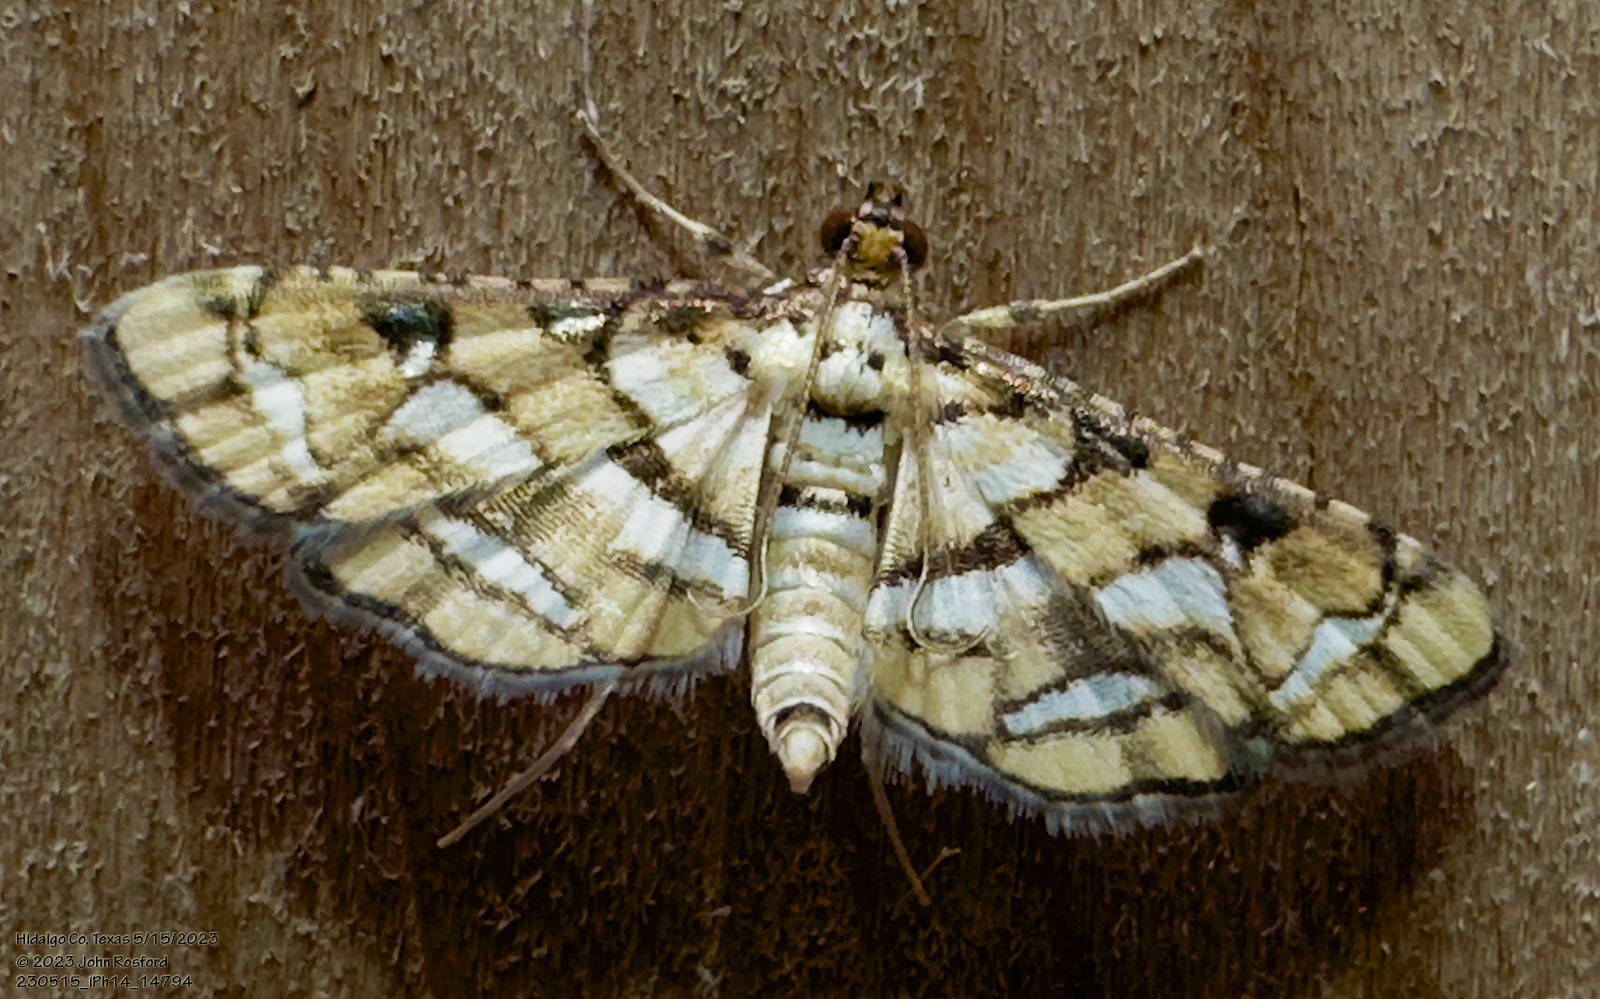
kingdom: Animalia
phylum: Arthropoda
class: Insecta
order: Lepidoptera
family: Crambidae
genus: Hileithia
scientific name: Hileithia magualis
